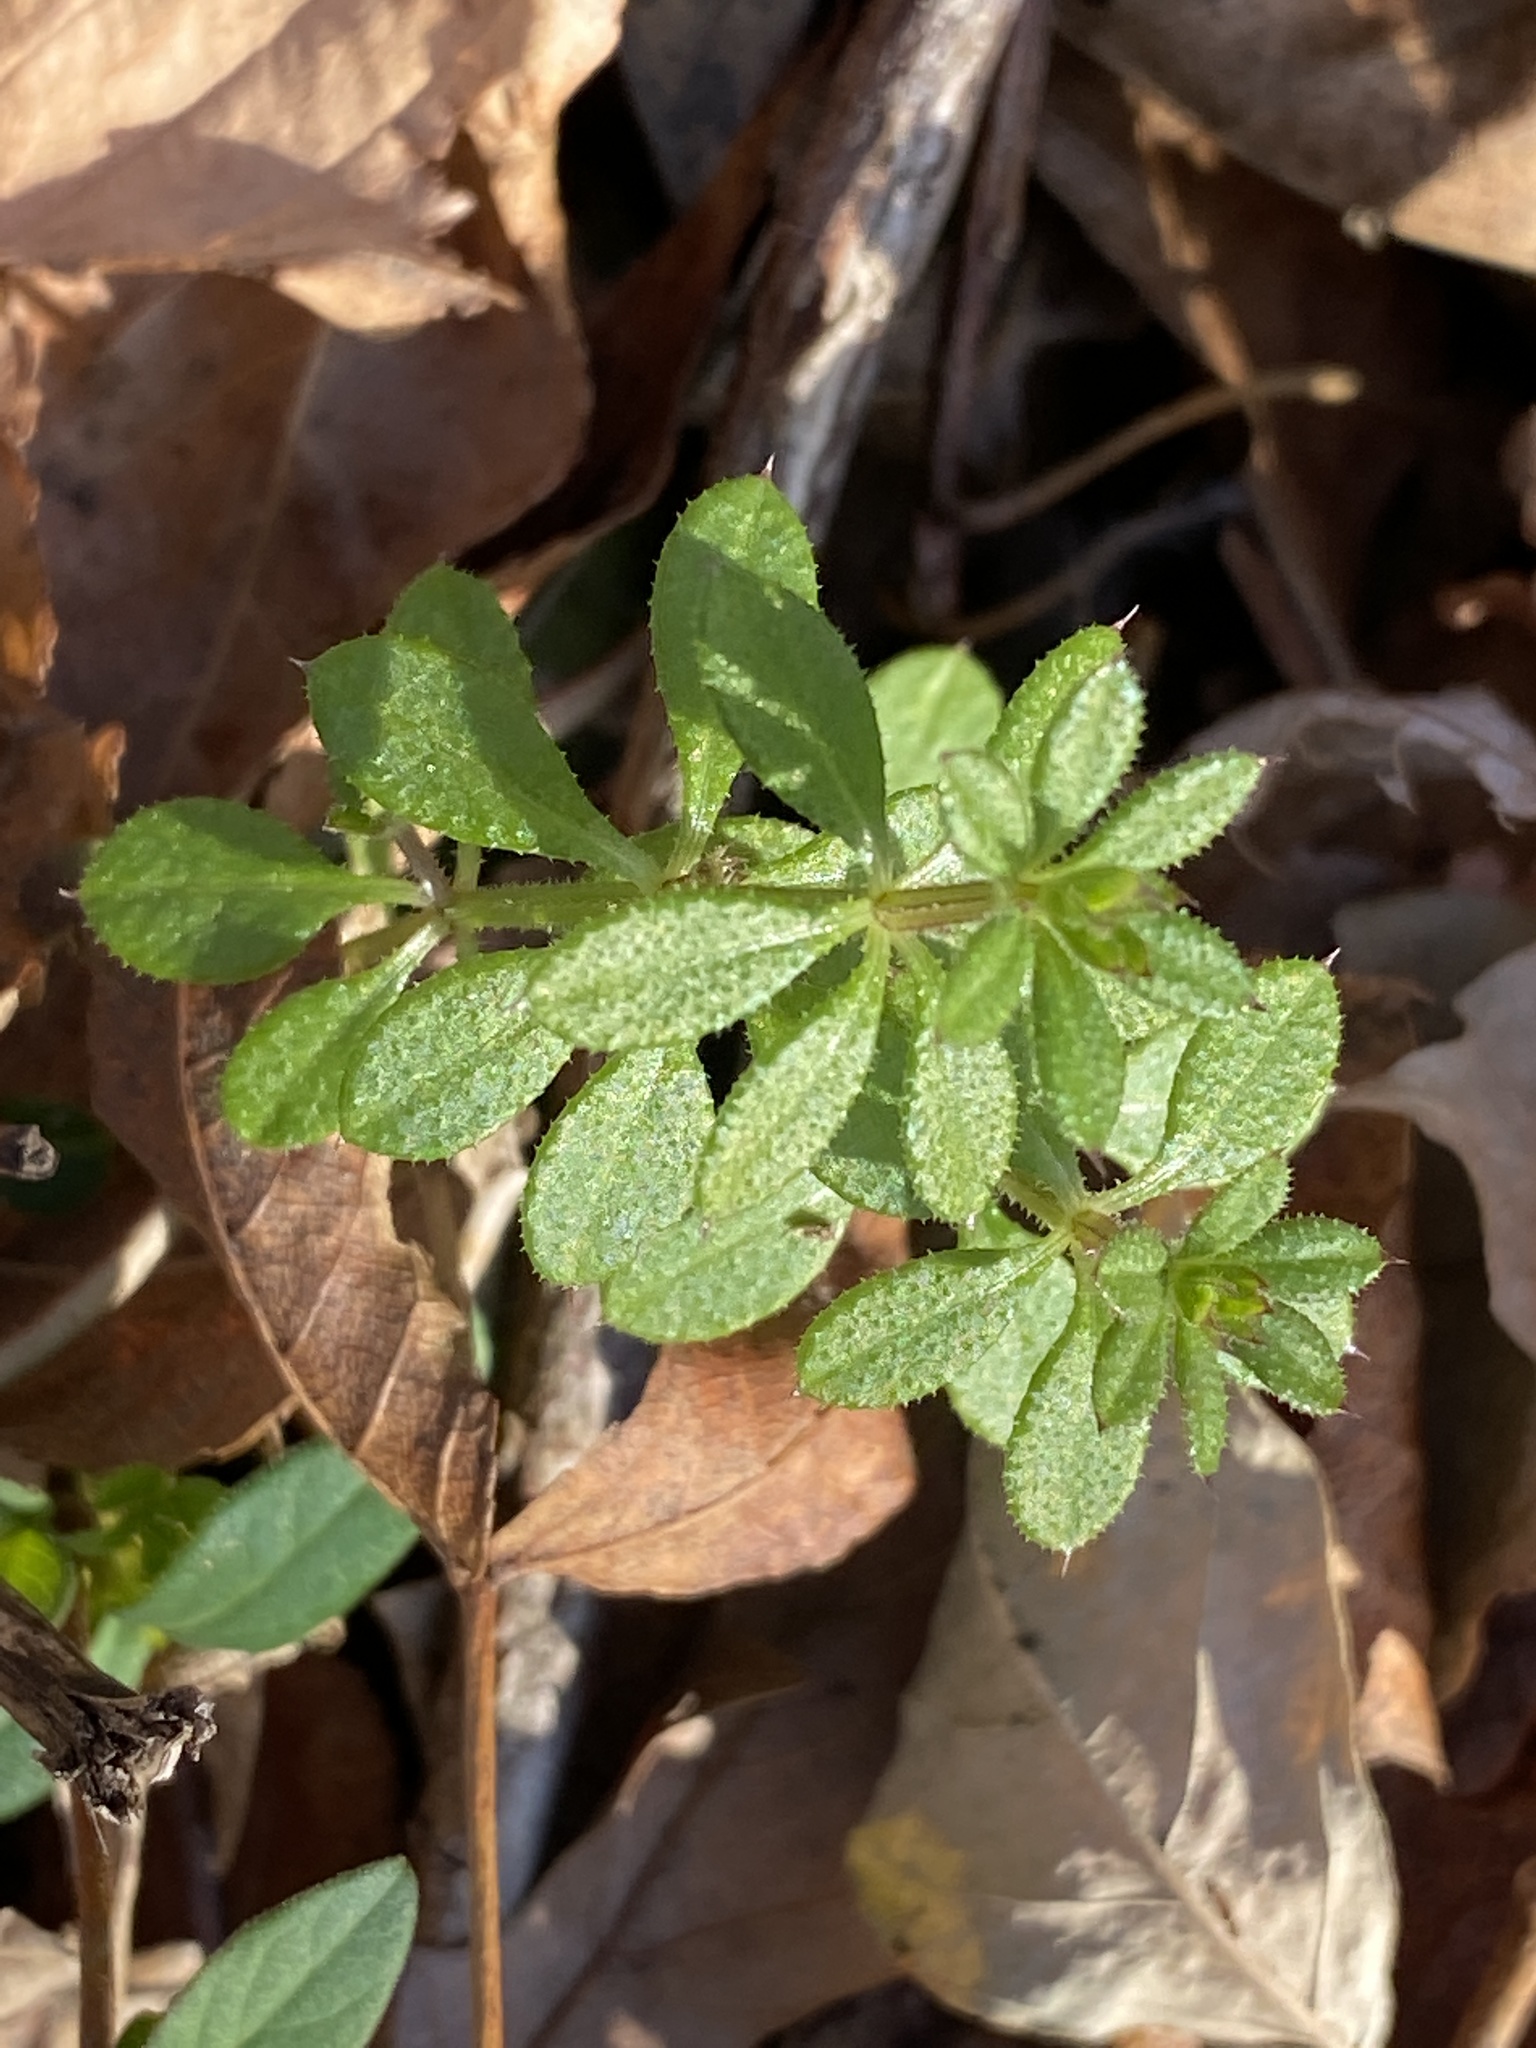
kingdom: Plantae
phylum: Tracheophyta
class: Magnoliopsida
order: Gentianales
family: Rubiaceae
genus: Galium
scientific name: Galium aparine
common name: Cleavers
